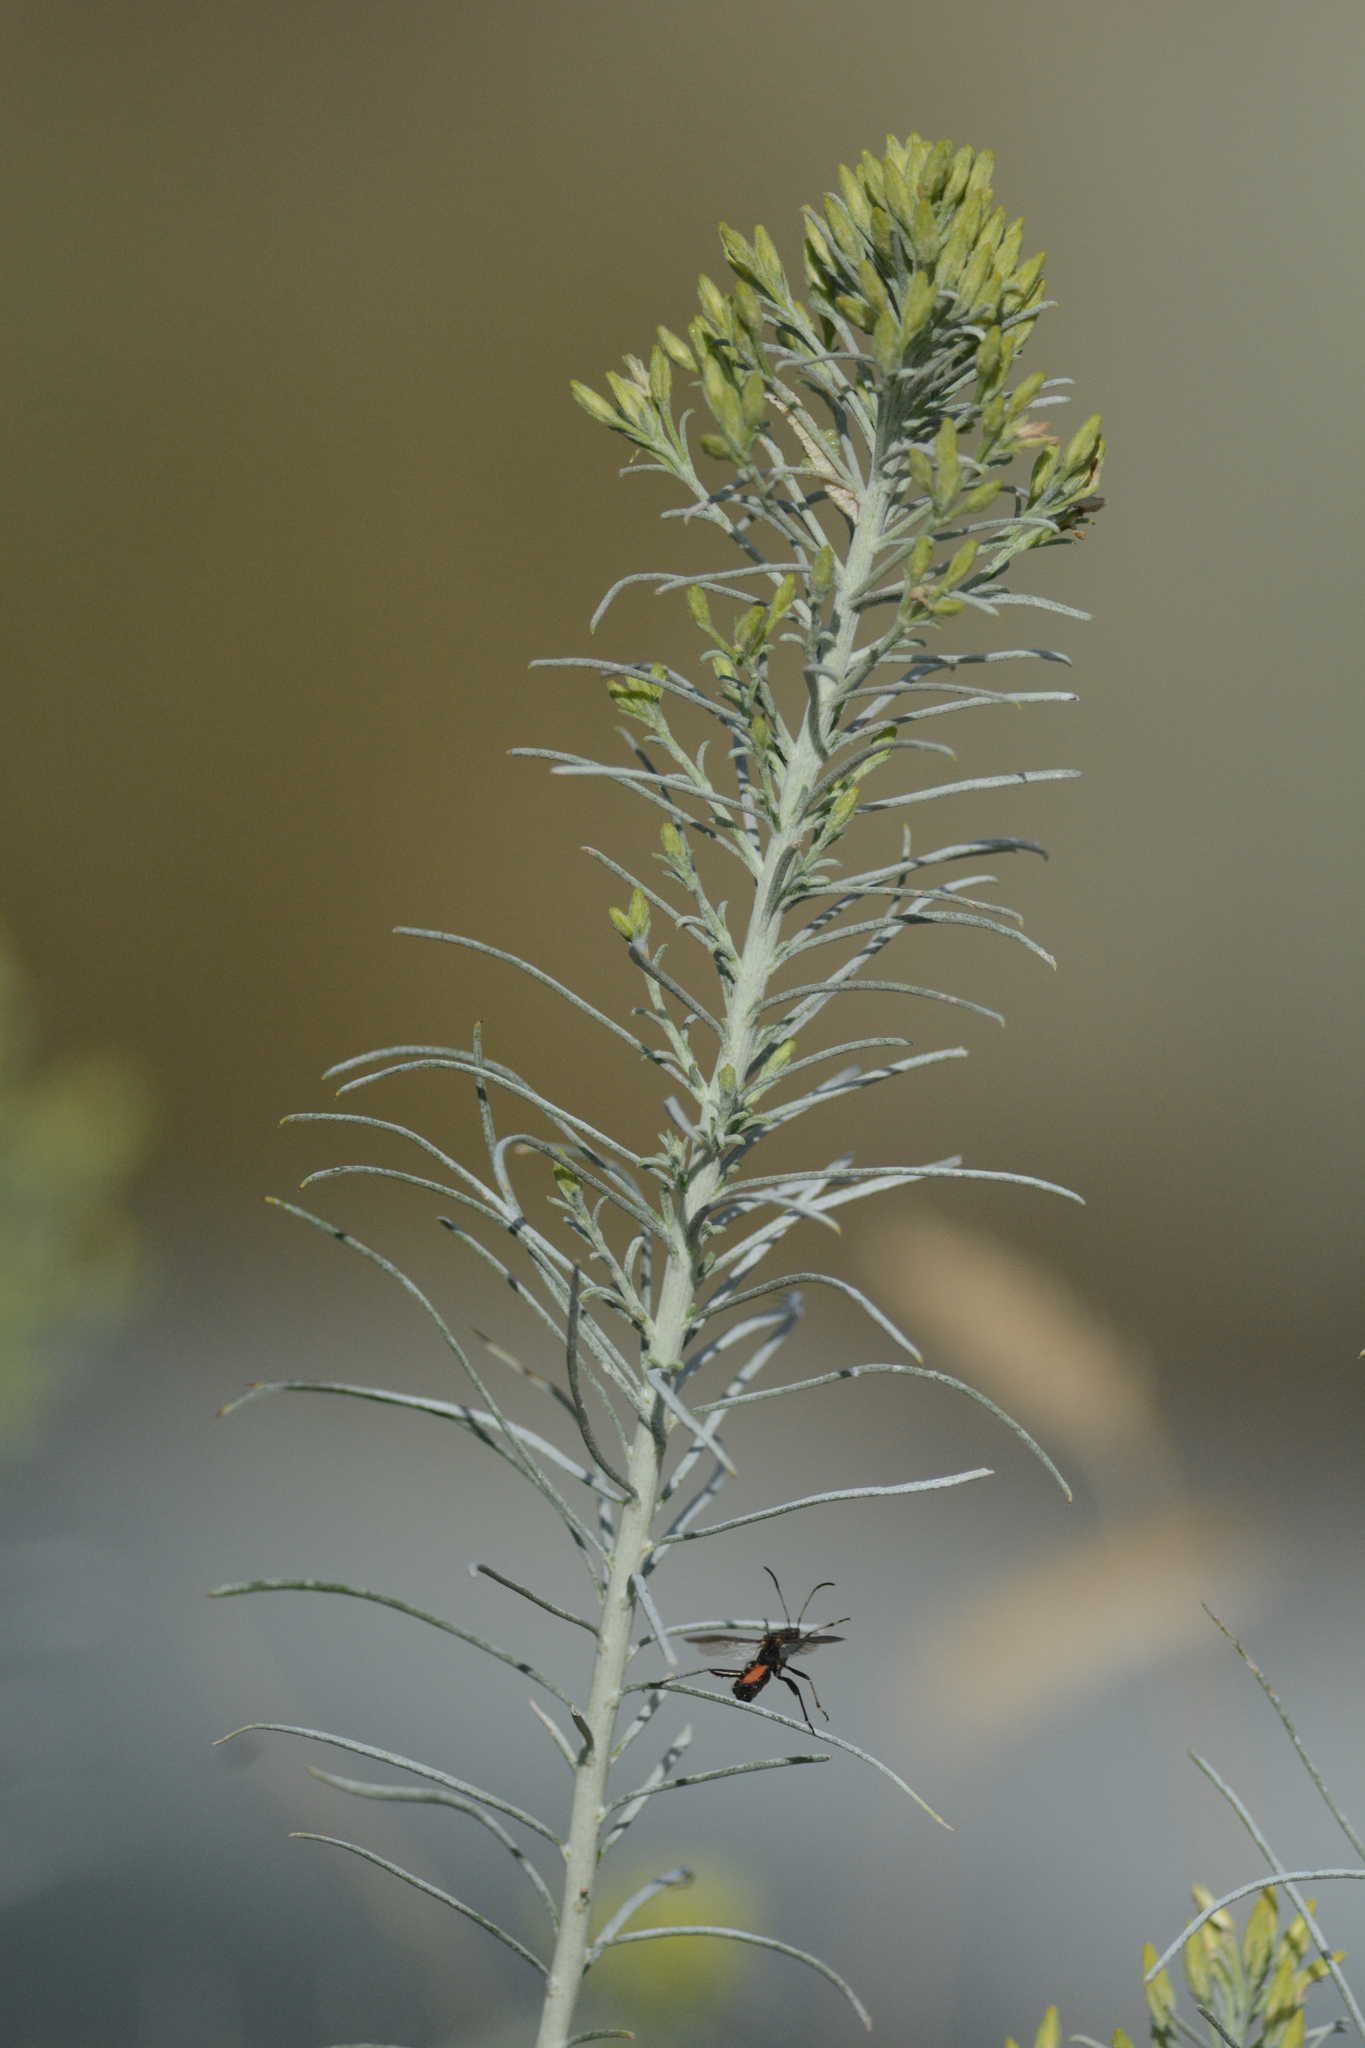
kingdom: Plantae
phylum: Tracheophyta
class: Magnoliopsida
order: Asterales
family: Asteraceae
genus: Ericameria
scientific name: Ericameria nauseosa
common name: Rubber rabbitbrush
